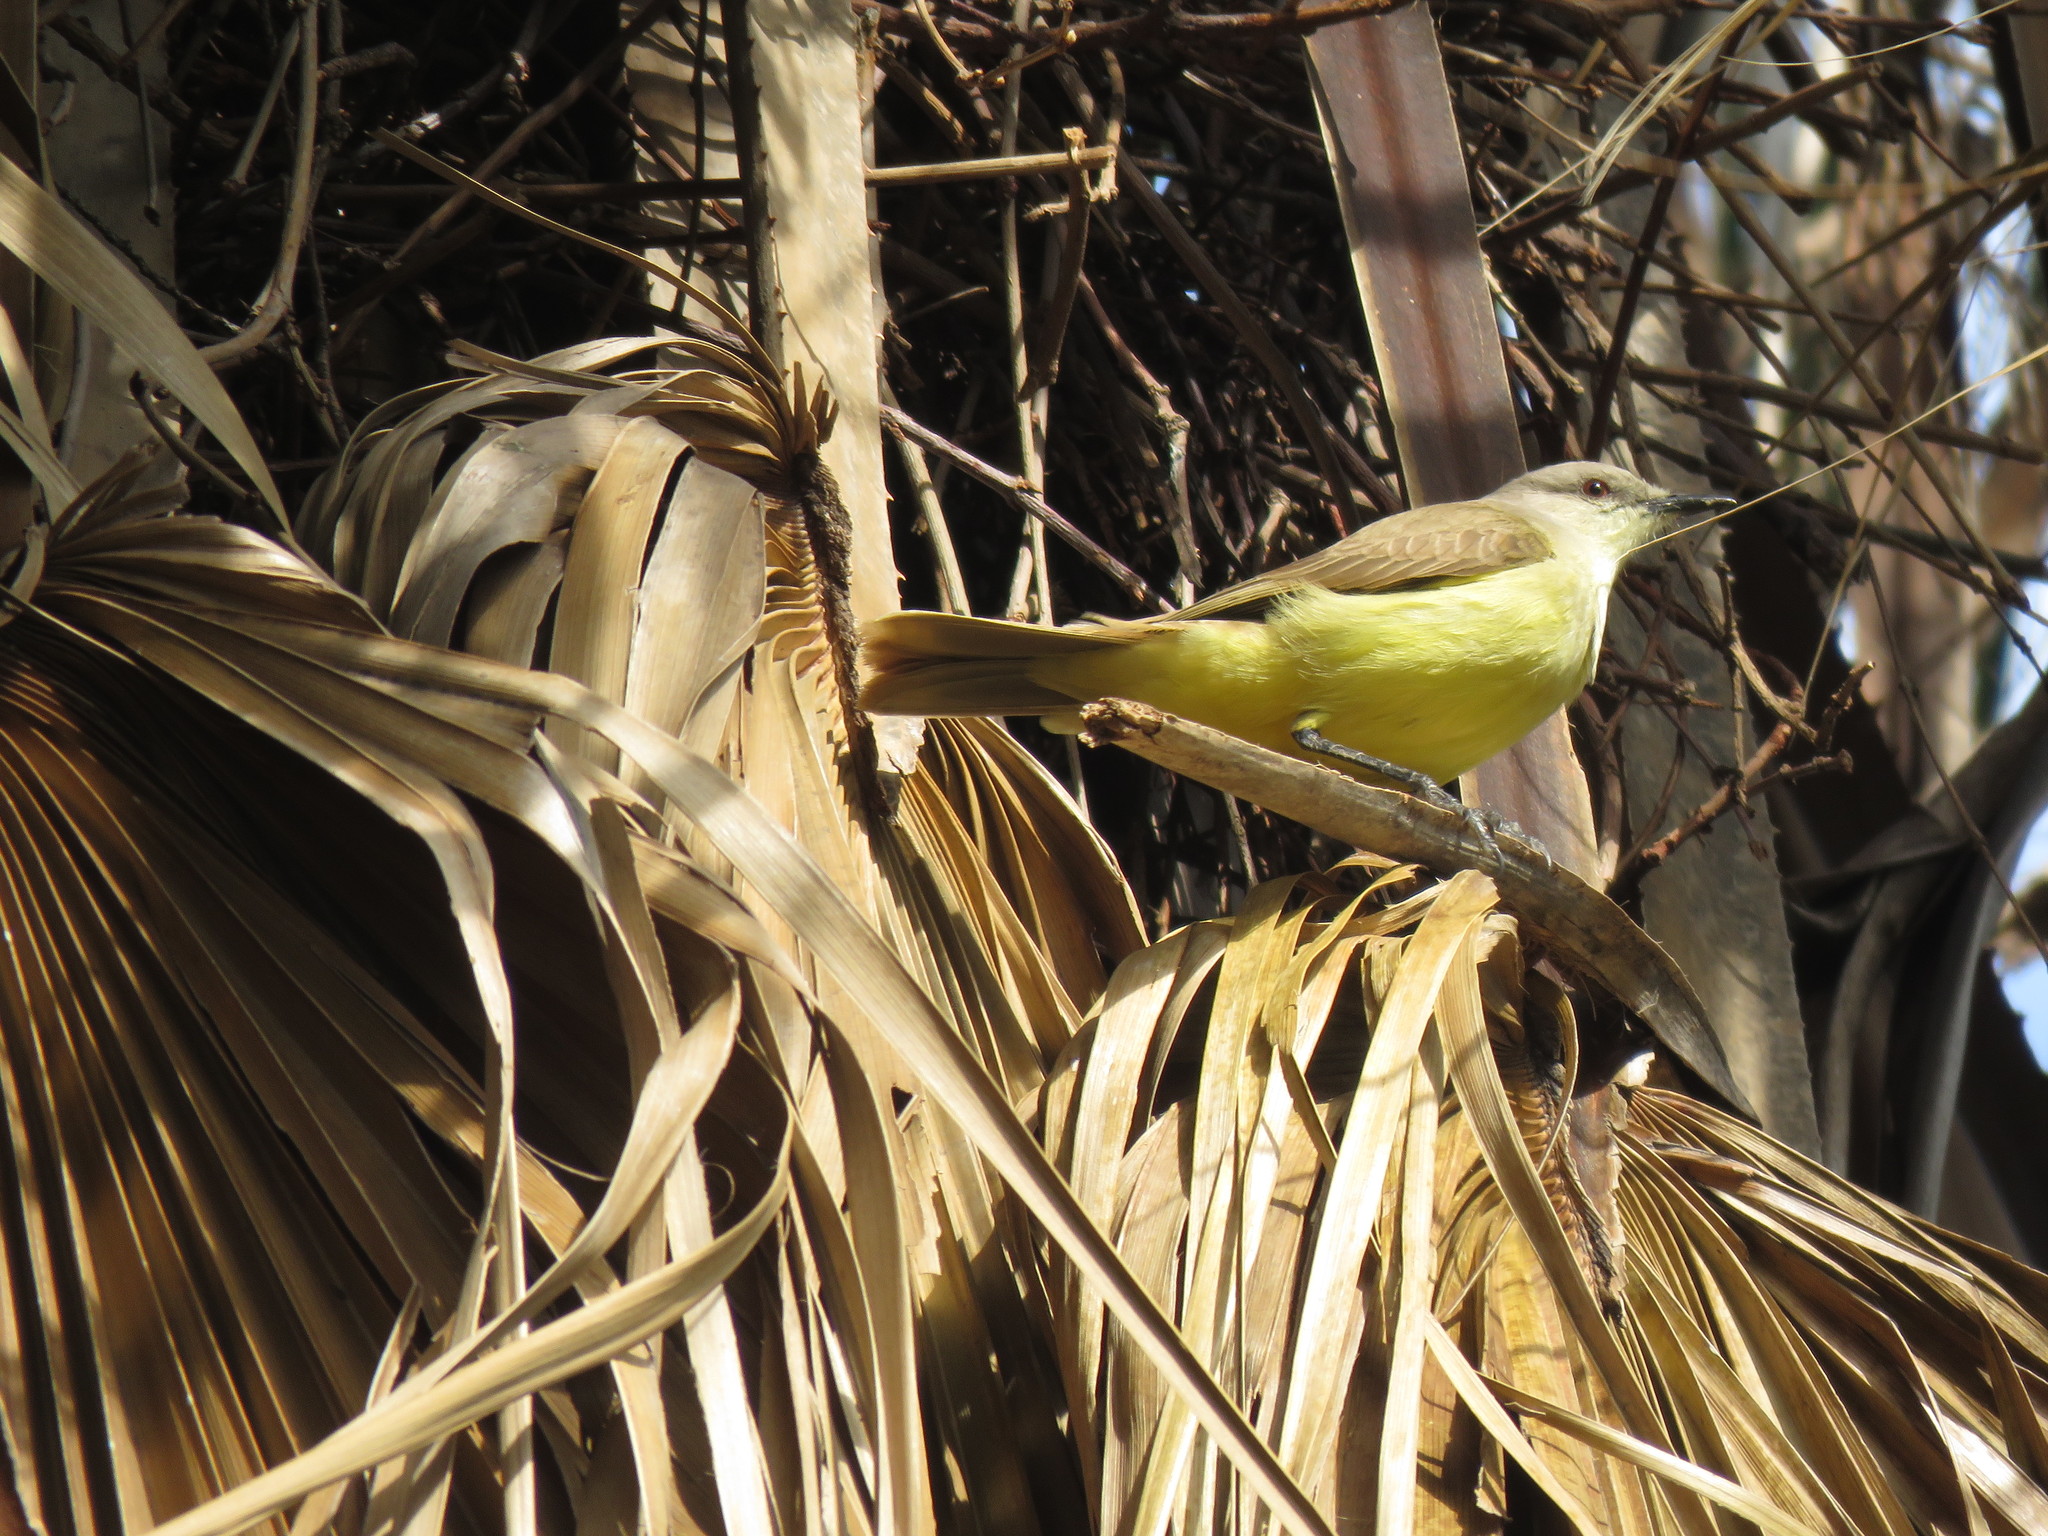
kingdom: Animalia
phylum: Chordata
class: Aves
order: Passeriformes
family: Tyrannidae
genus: Machetornis
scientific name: Machetornis rixosa
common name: Cattle tyrant
